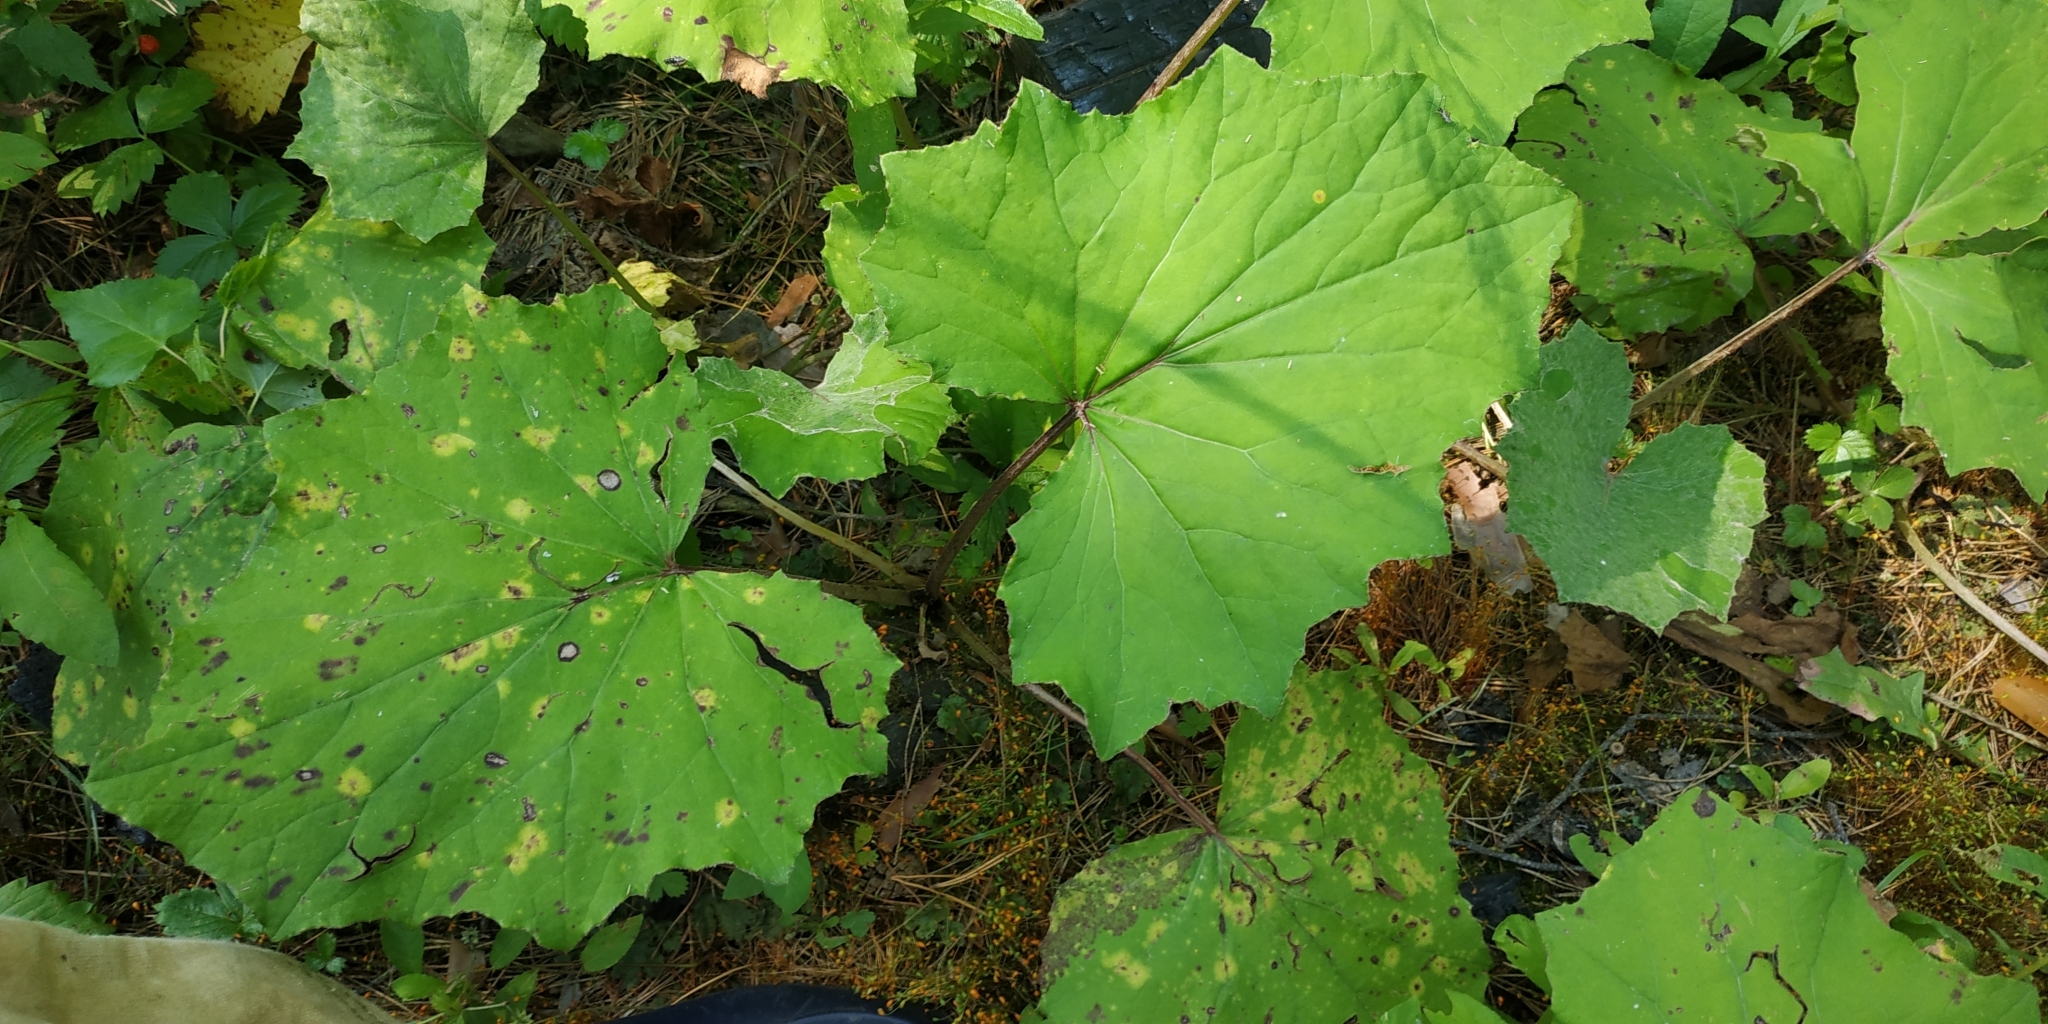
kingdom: Plantae
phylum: Tracheophyta
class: Magnoliopsida
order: Asterales
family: Asteraceae
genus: Tussilago
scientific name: Tussilago farfara
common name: Coltsfoot
